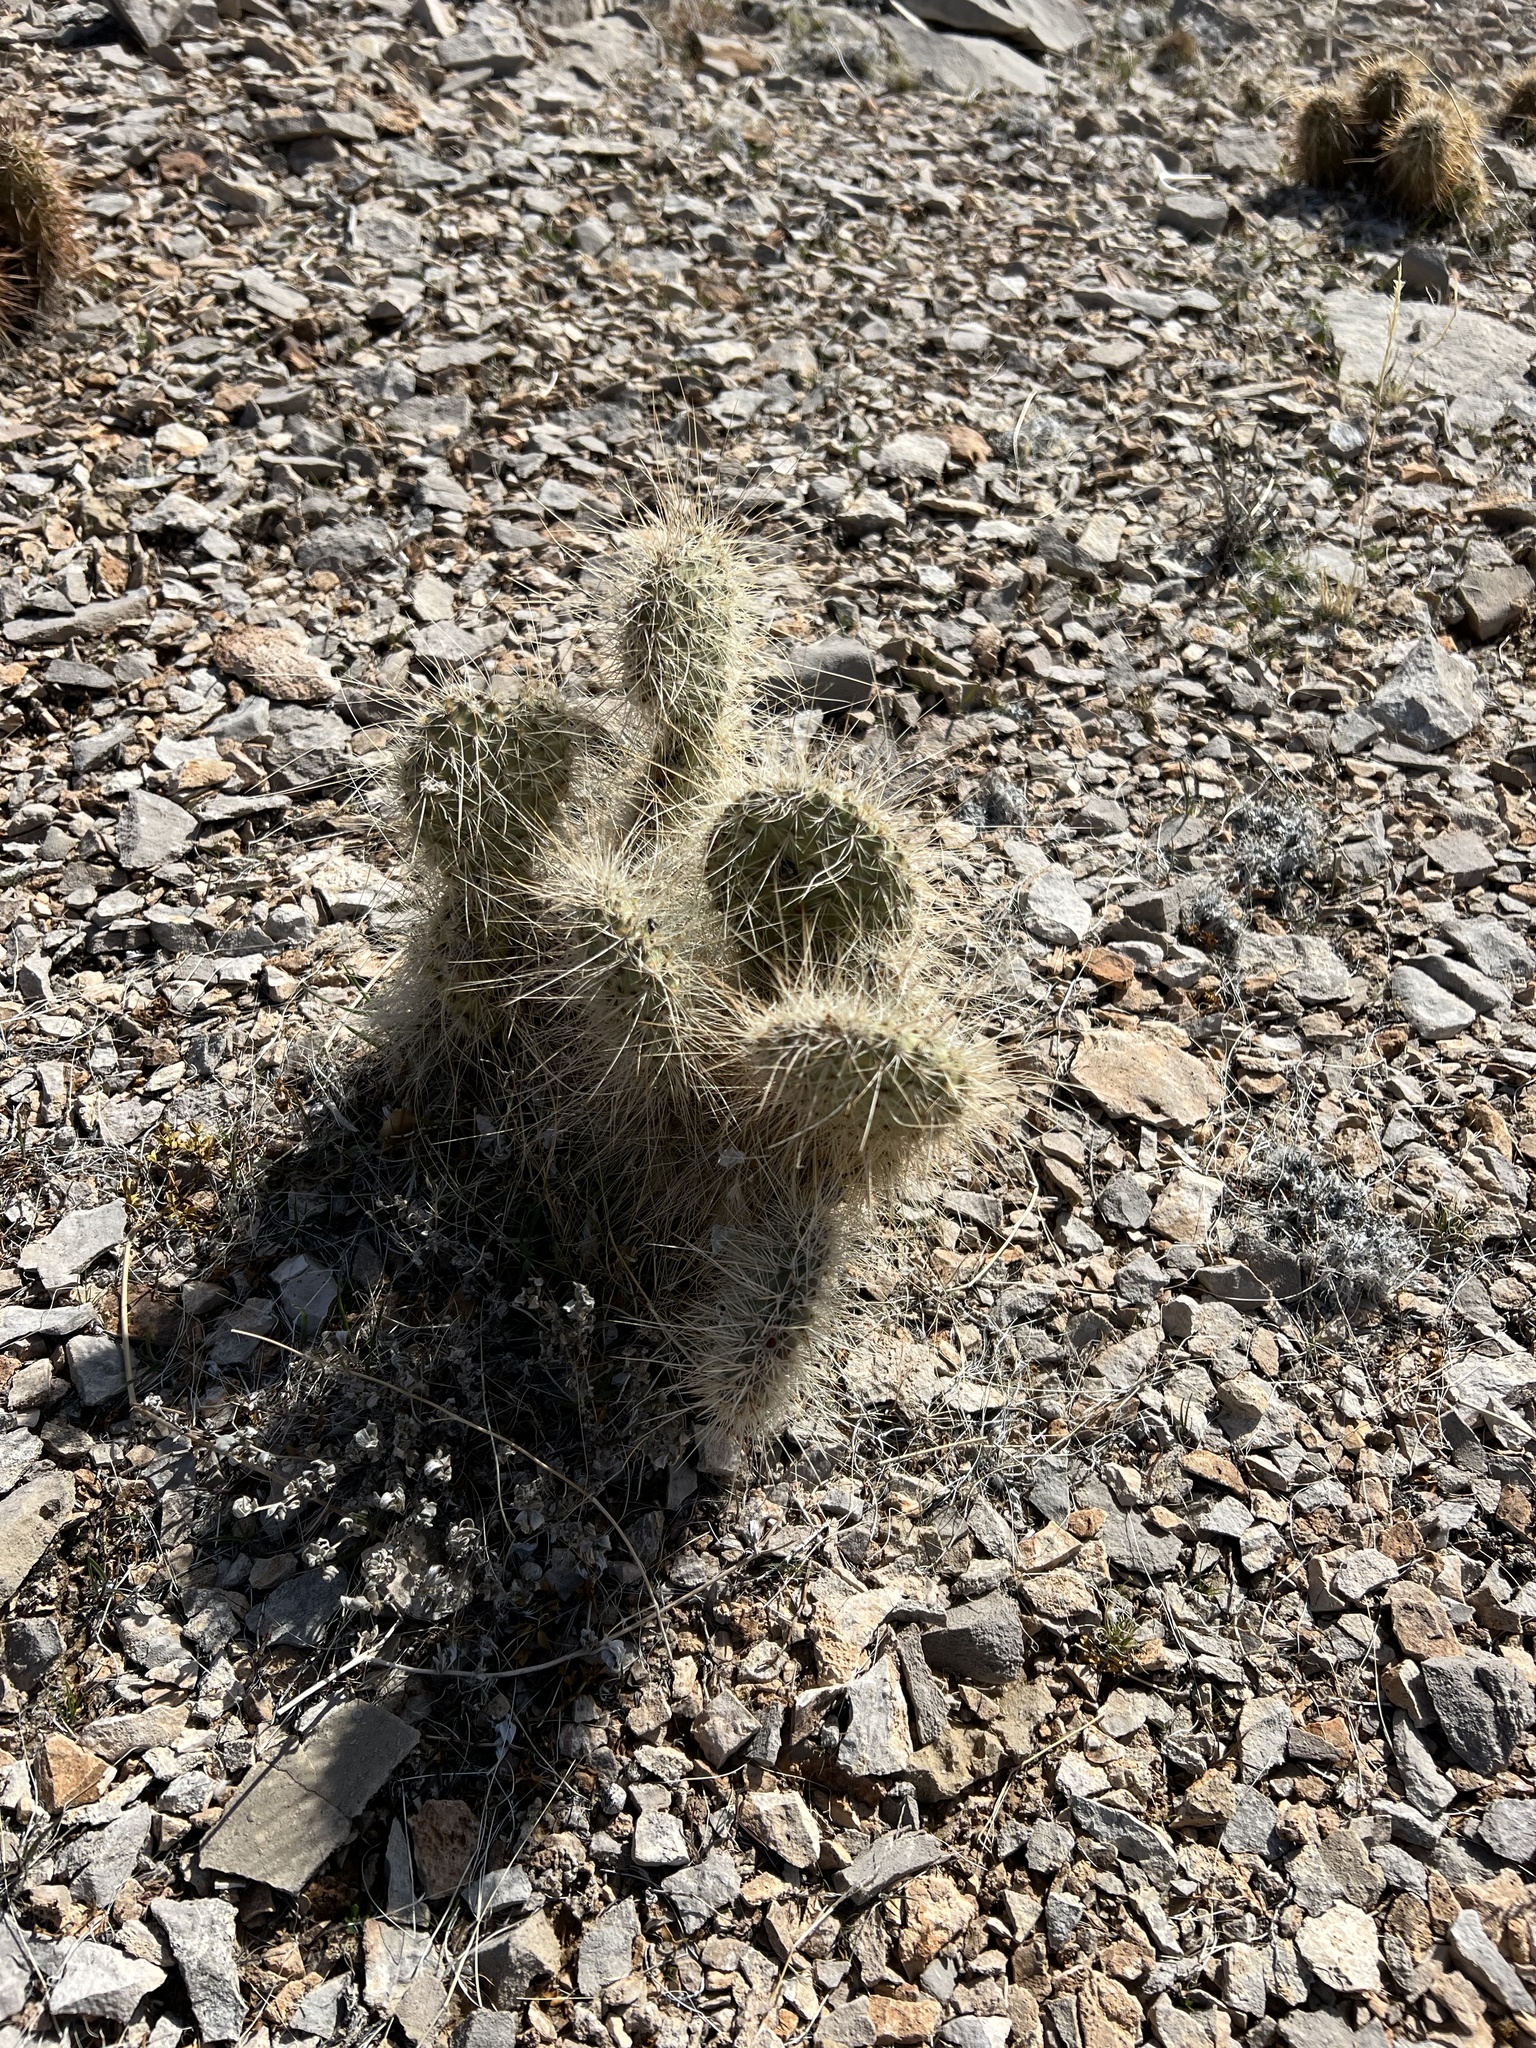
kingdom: Plantae
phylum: Tracheophyta
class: Magnoliopsida
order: Caryophyllales
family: Cactaceae
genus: Opuntia
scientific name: Opuntia polyacantha
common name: Plains prickly-pear
